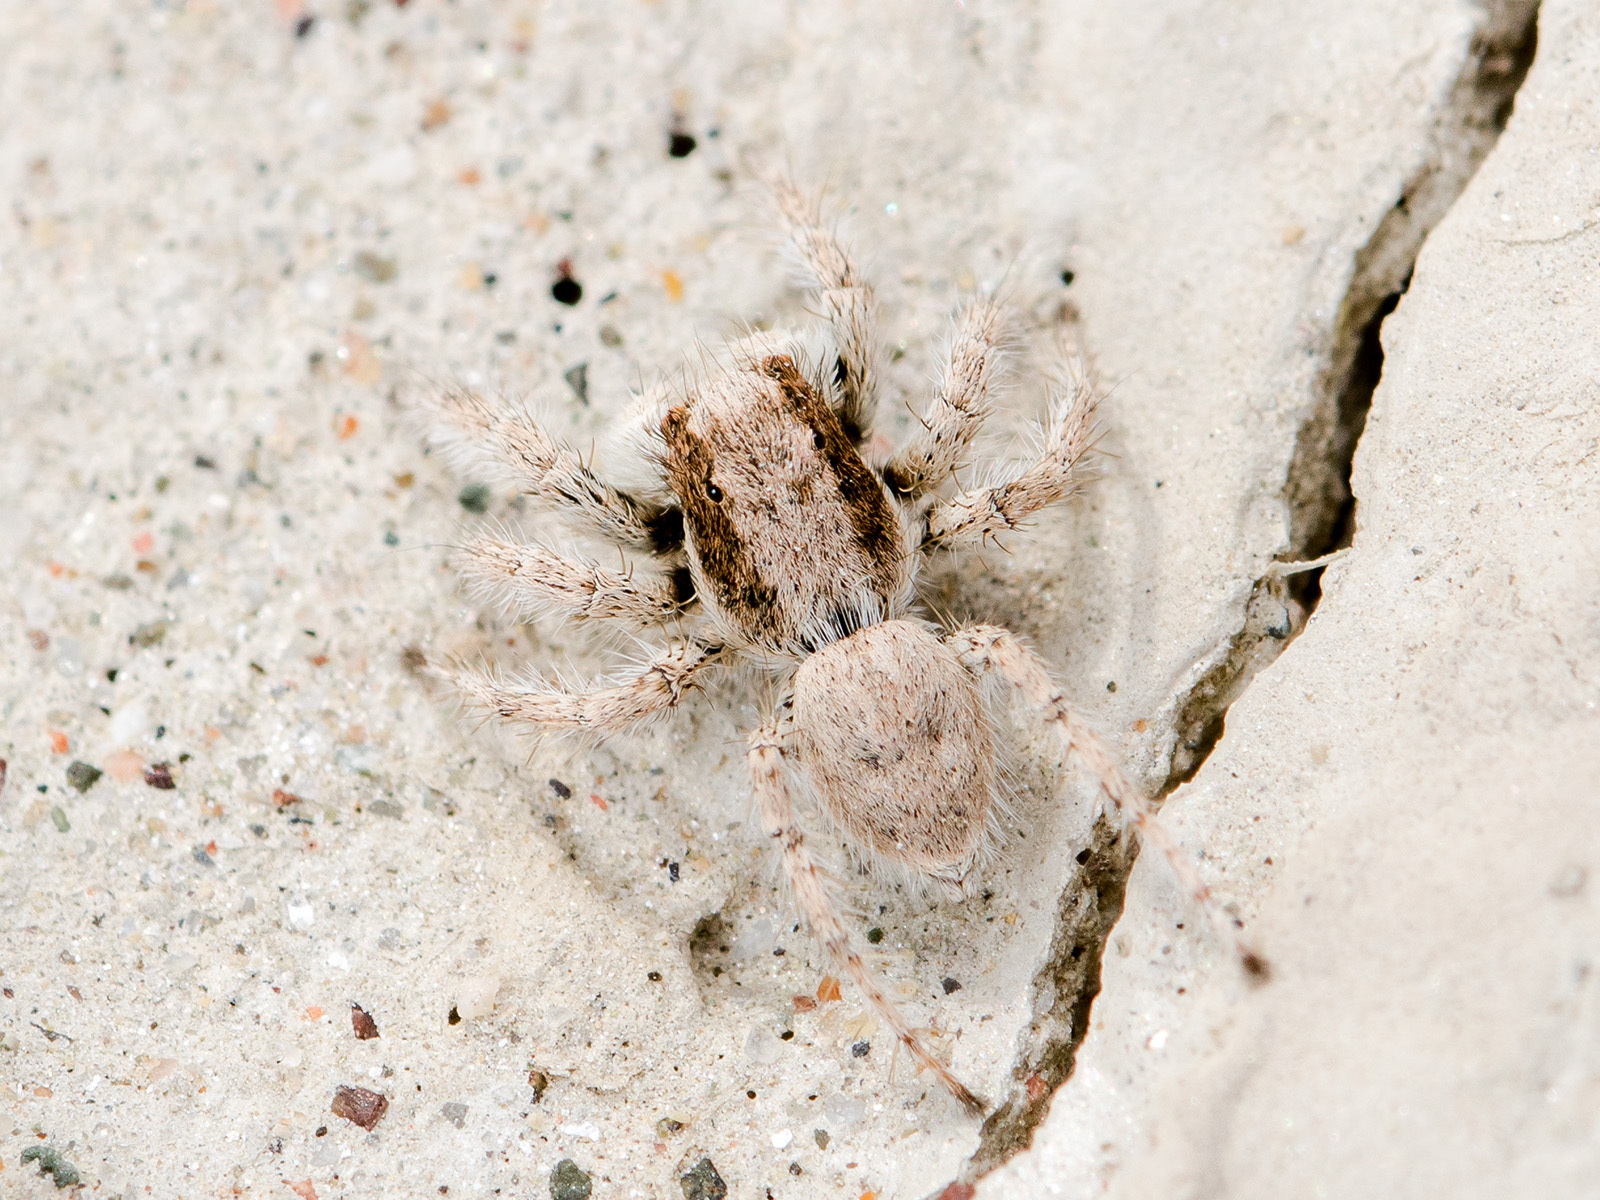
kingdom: Animalia
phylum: Arthropoda
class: Arachnida
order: Araneae
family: Salticidae
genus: Aelurillus
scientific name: Aelurillus concolor
